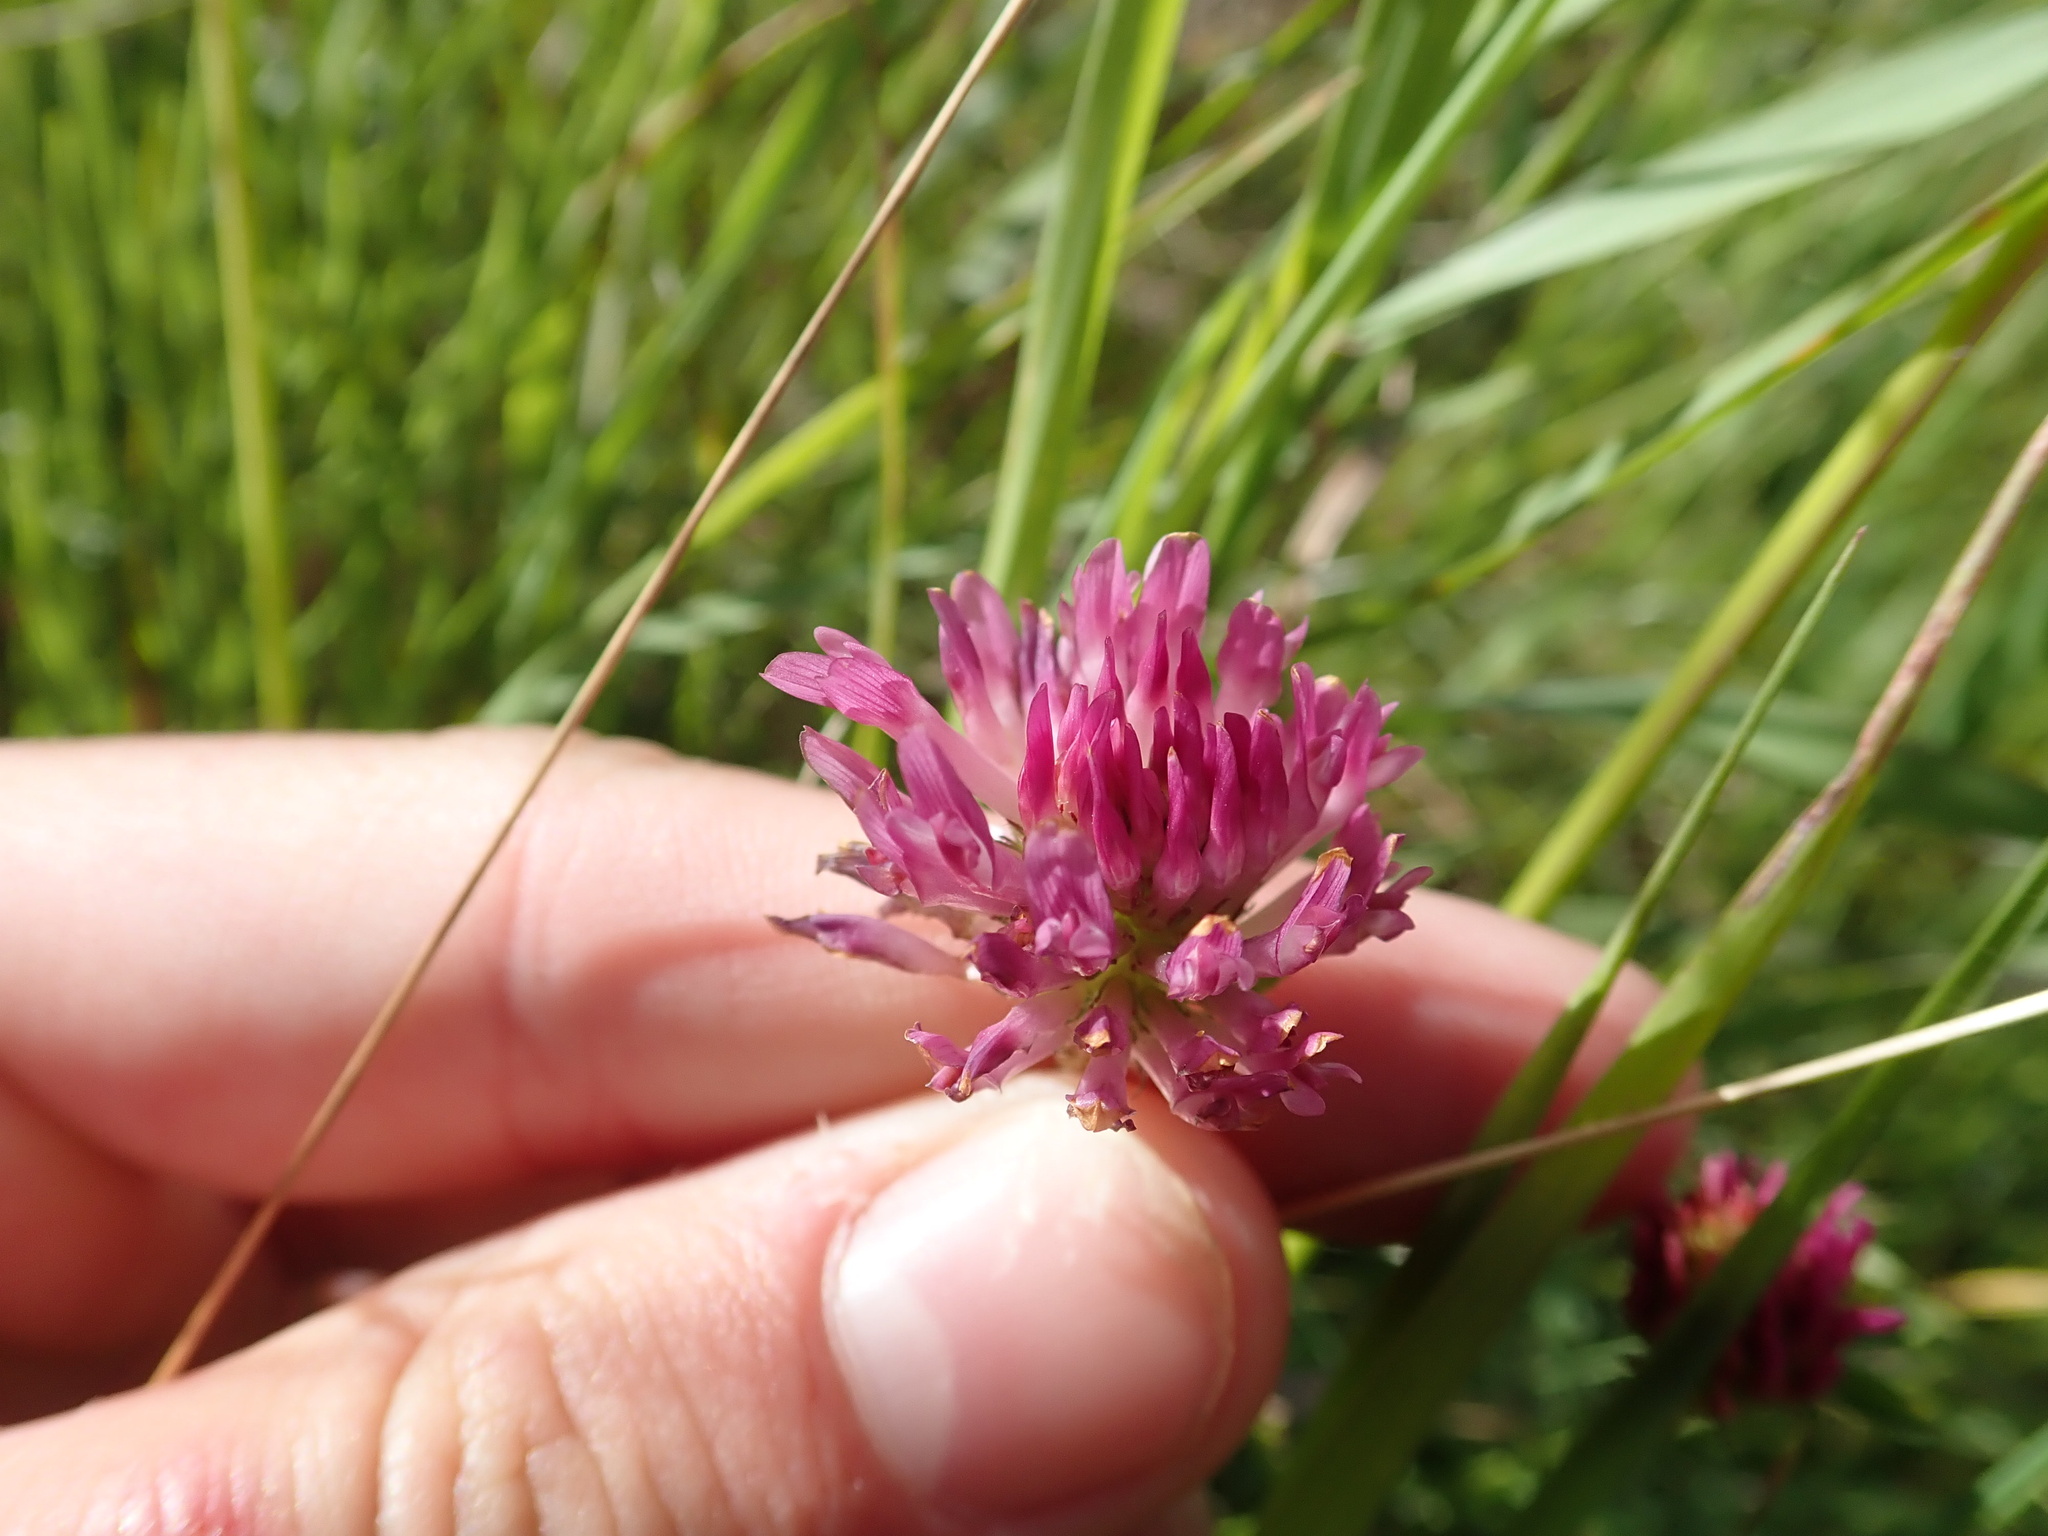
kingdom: Plantae
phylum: Tracheophyta
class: Magnoliopsida
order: Fabales
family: Fabaceae
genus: Trifolium
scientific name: Trifolium pratense
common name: Red clover
